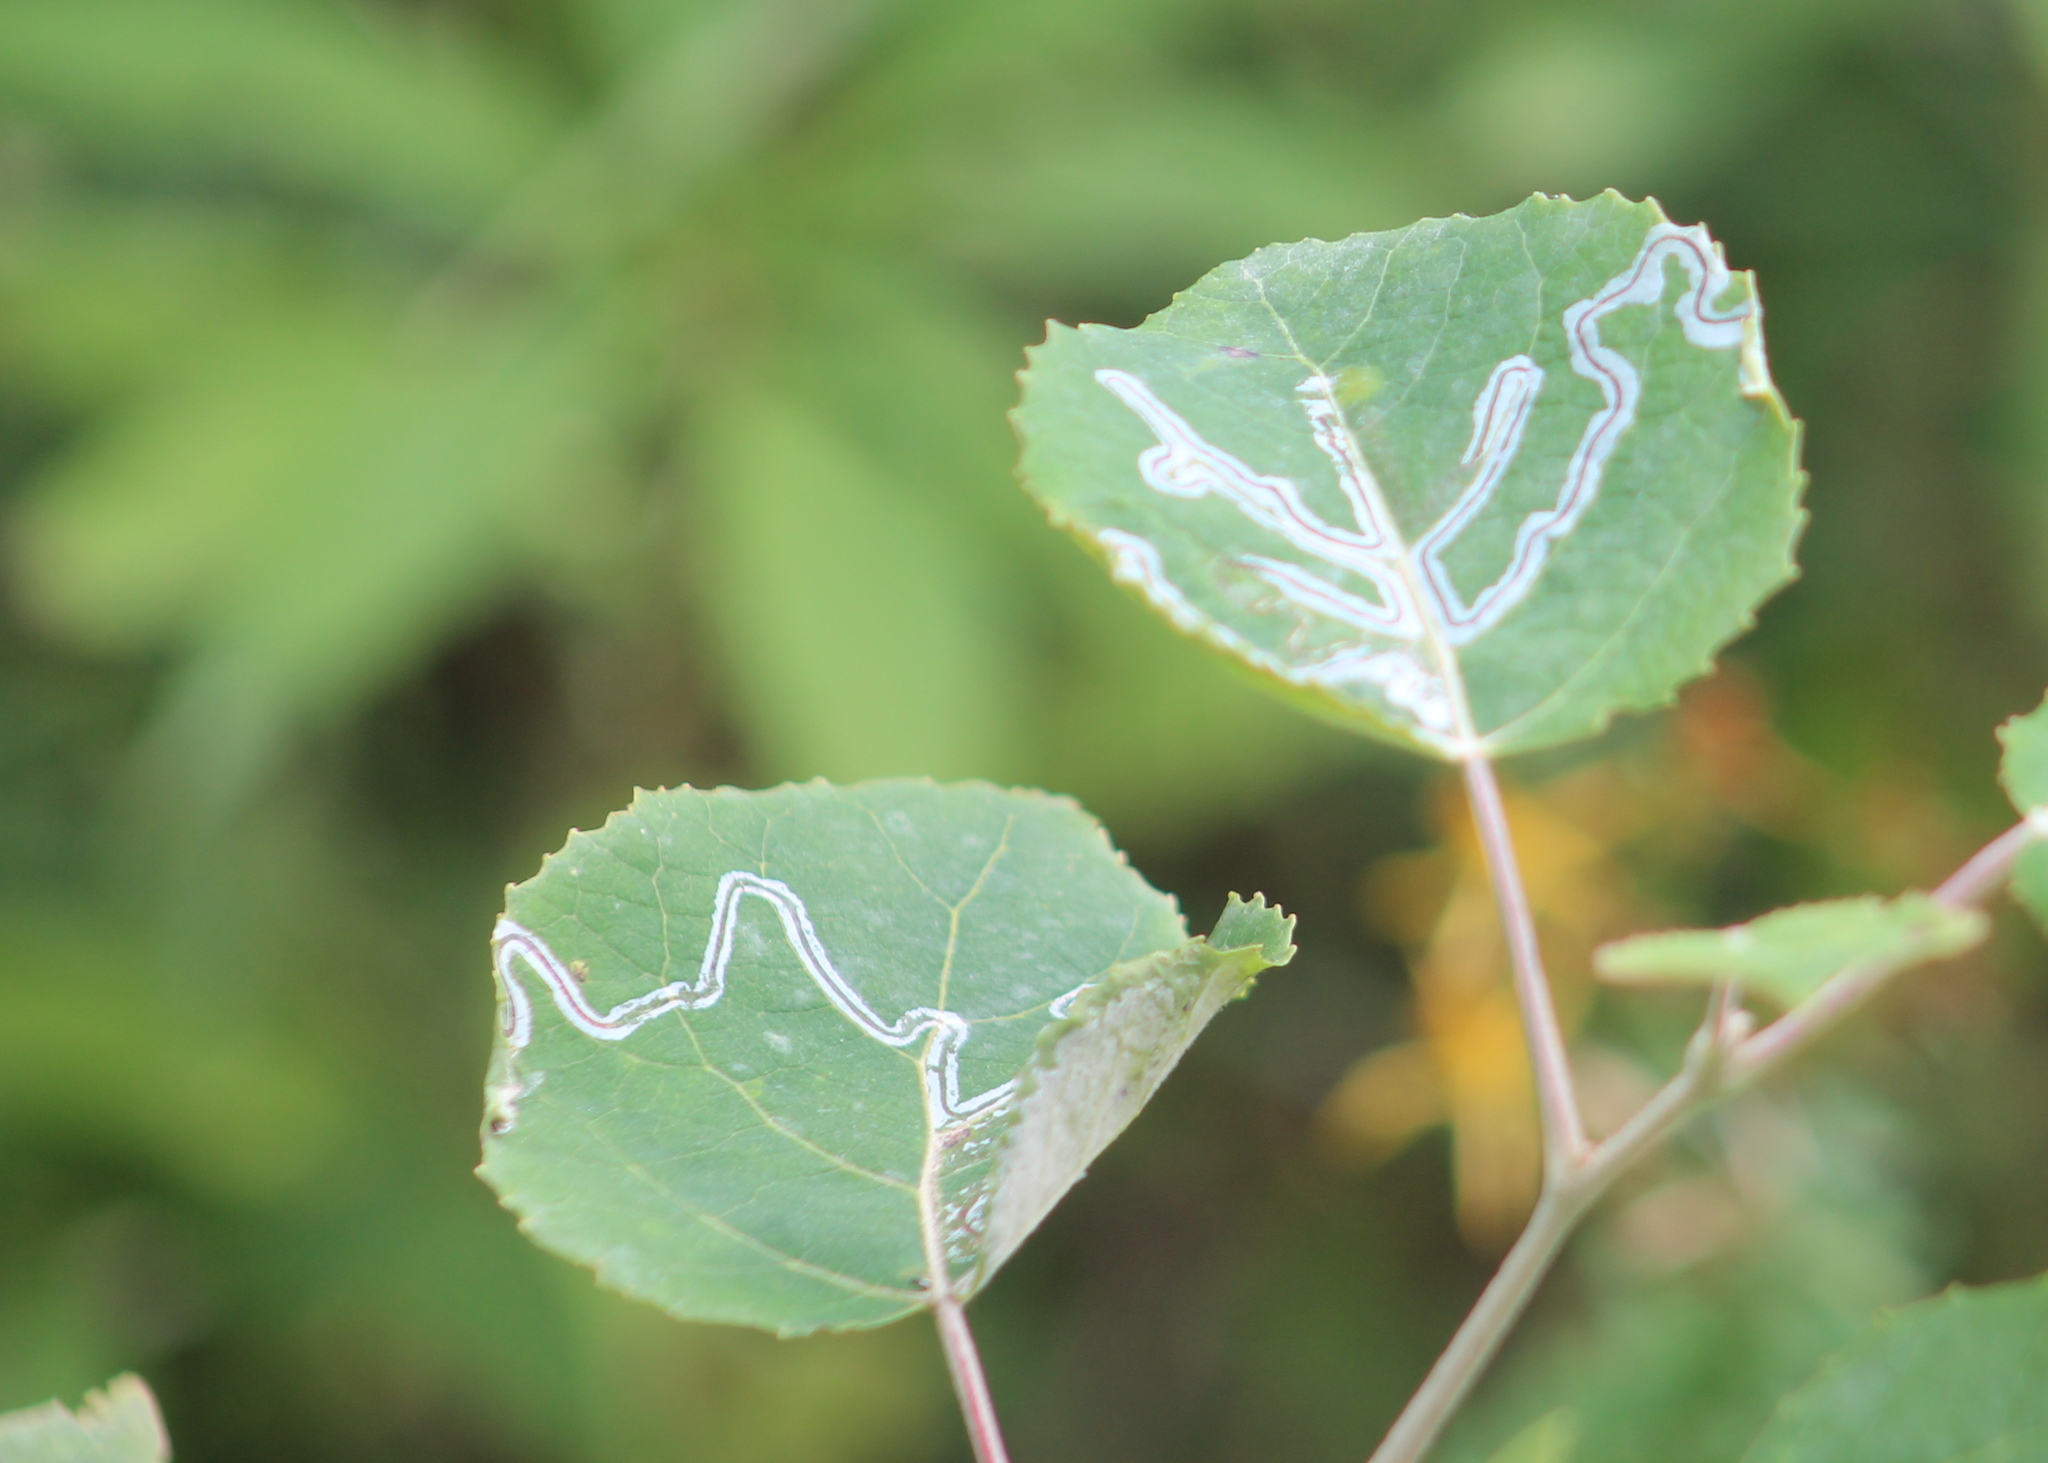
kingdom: Animalia
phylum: Arthropoda
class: Insecta
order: Lepidoptera
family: Gracillariidae
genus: Phyllocnistis
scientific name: Phyllocnistis populiella
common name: Aspen serpentine leafminer moth
